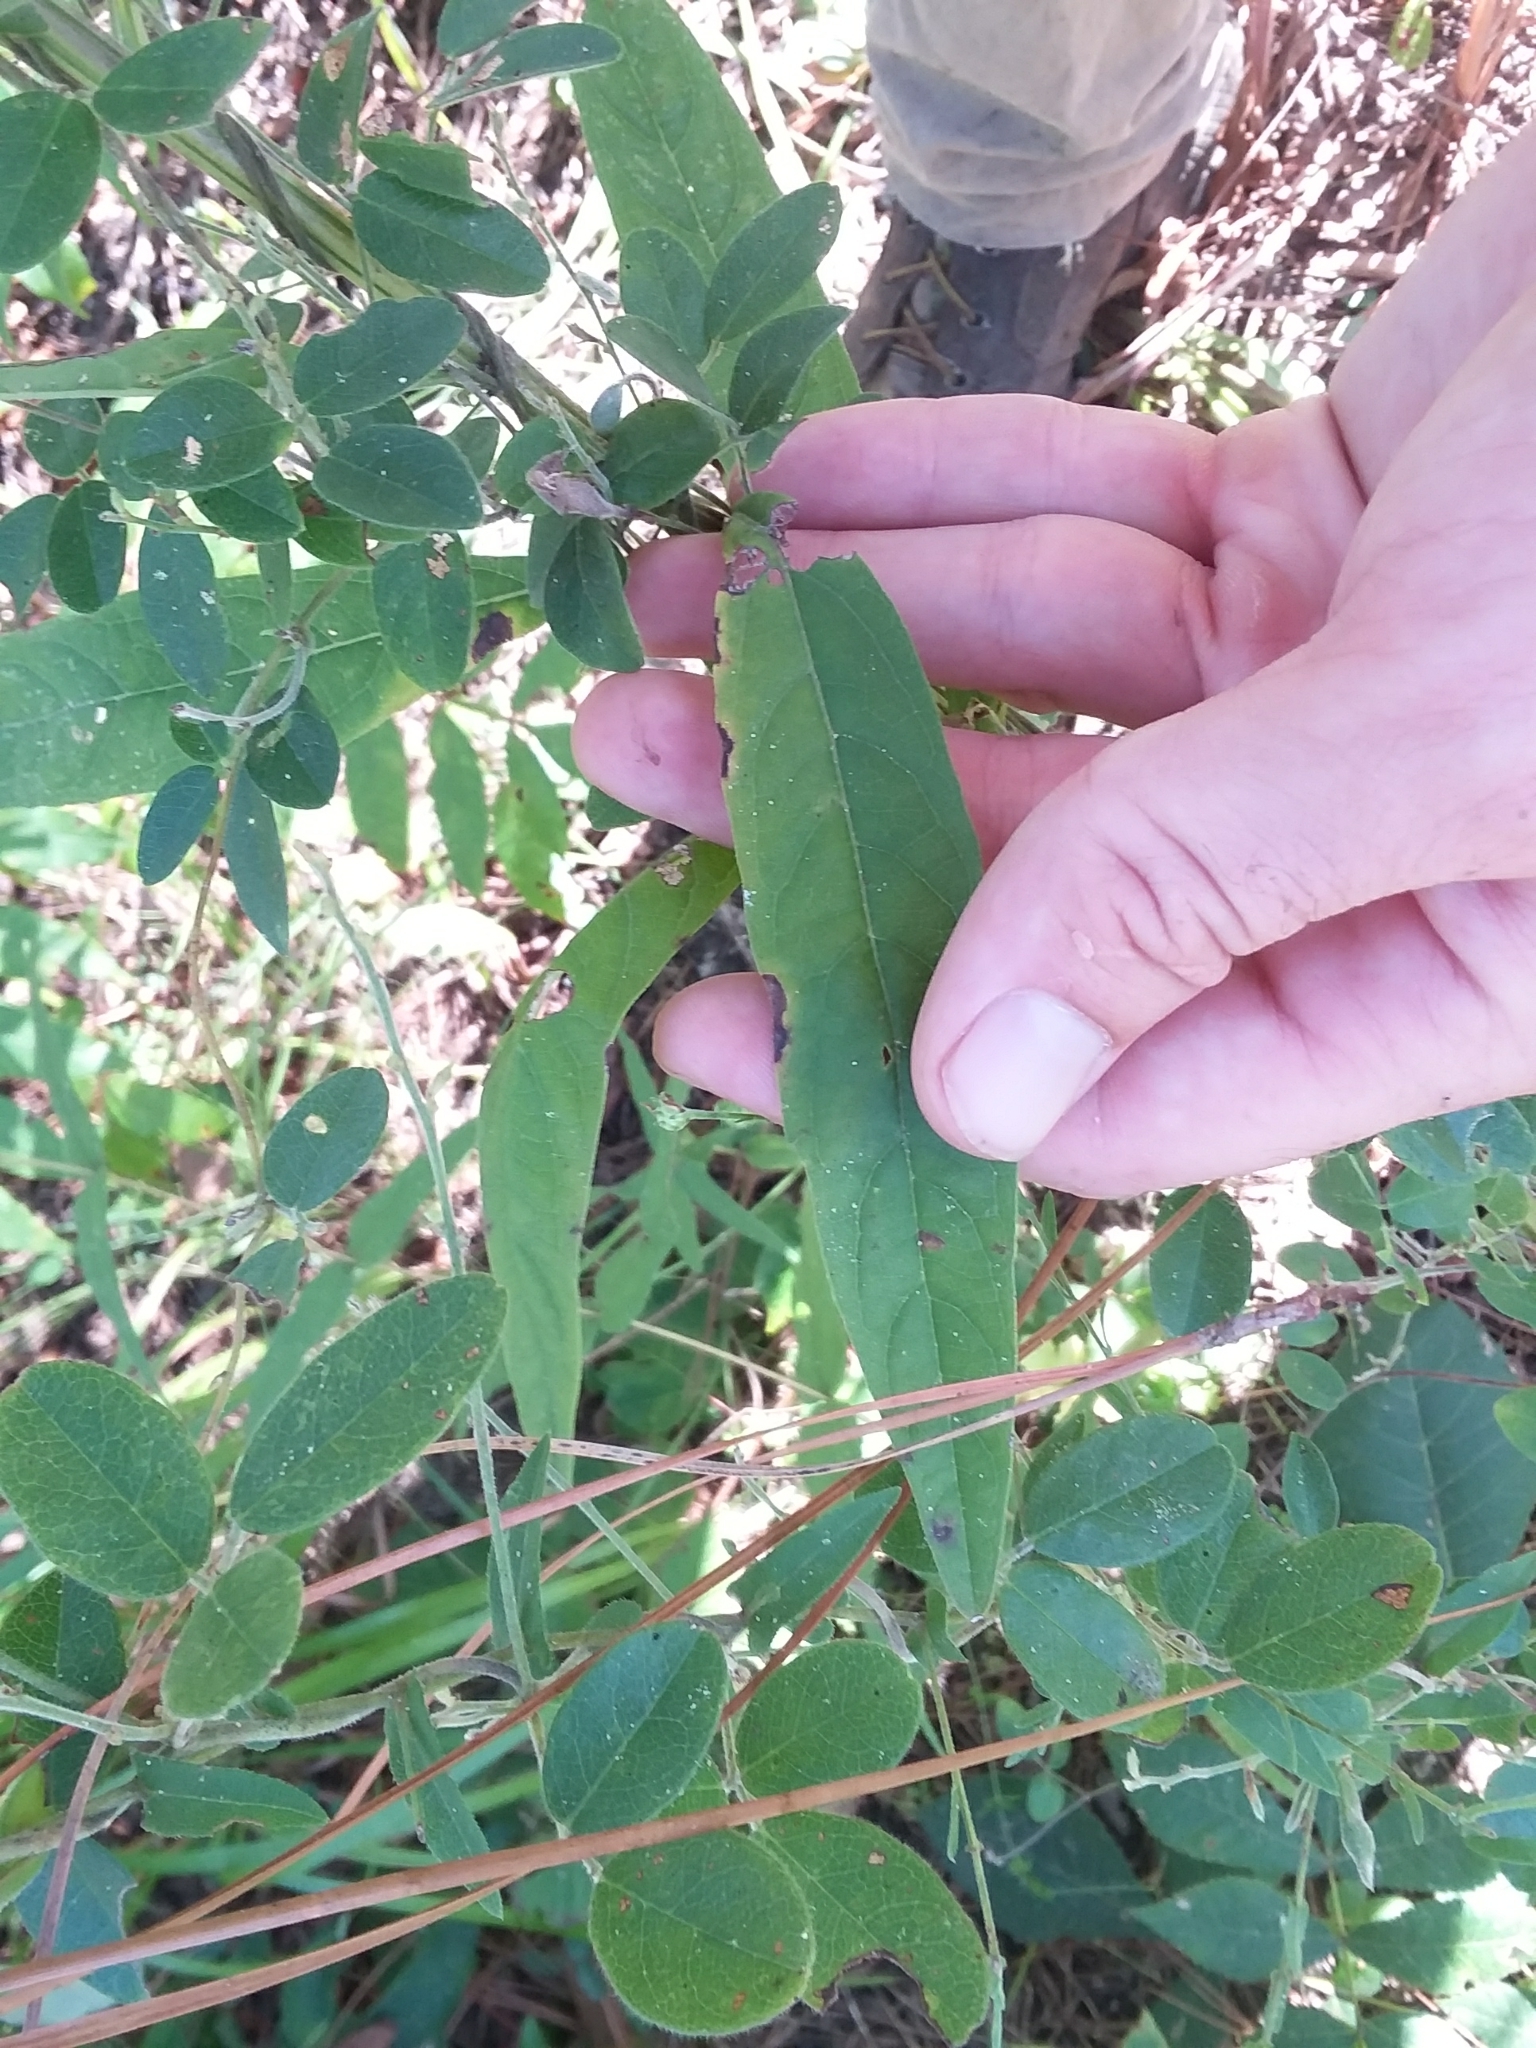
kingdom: Plantae
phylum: Tracheophyta
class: Magnoliopsida
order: Lamiales
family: Lamiaceae
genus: Salvia
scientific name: Salvia azurea
